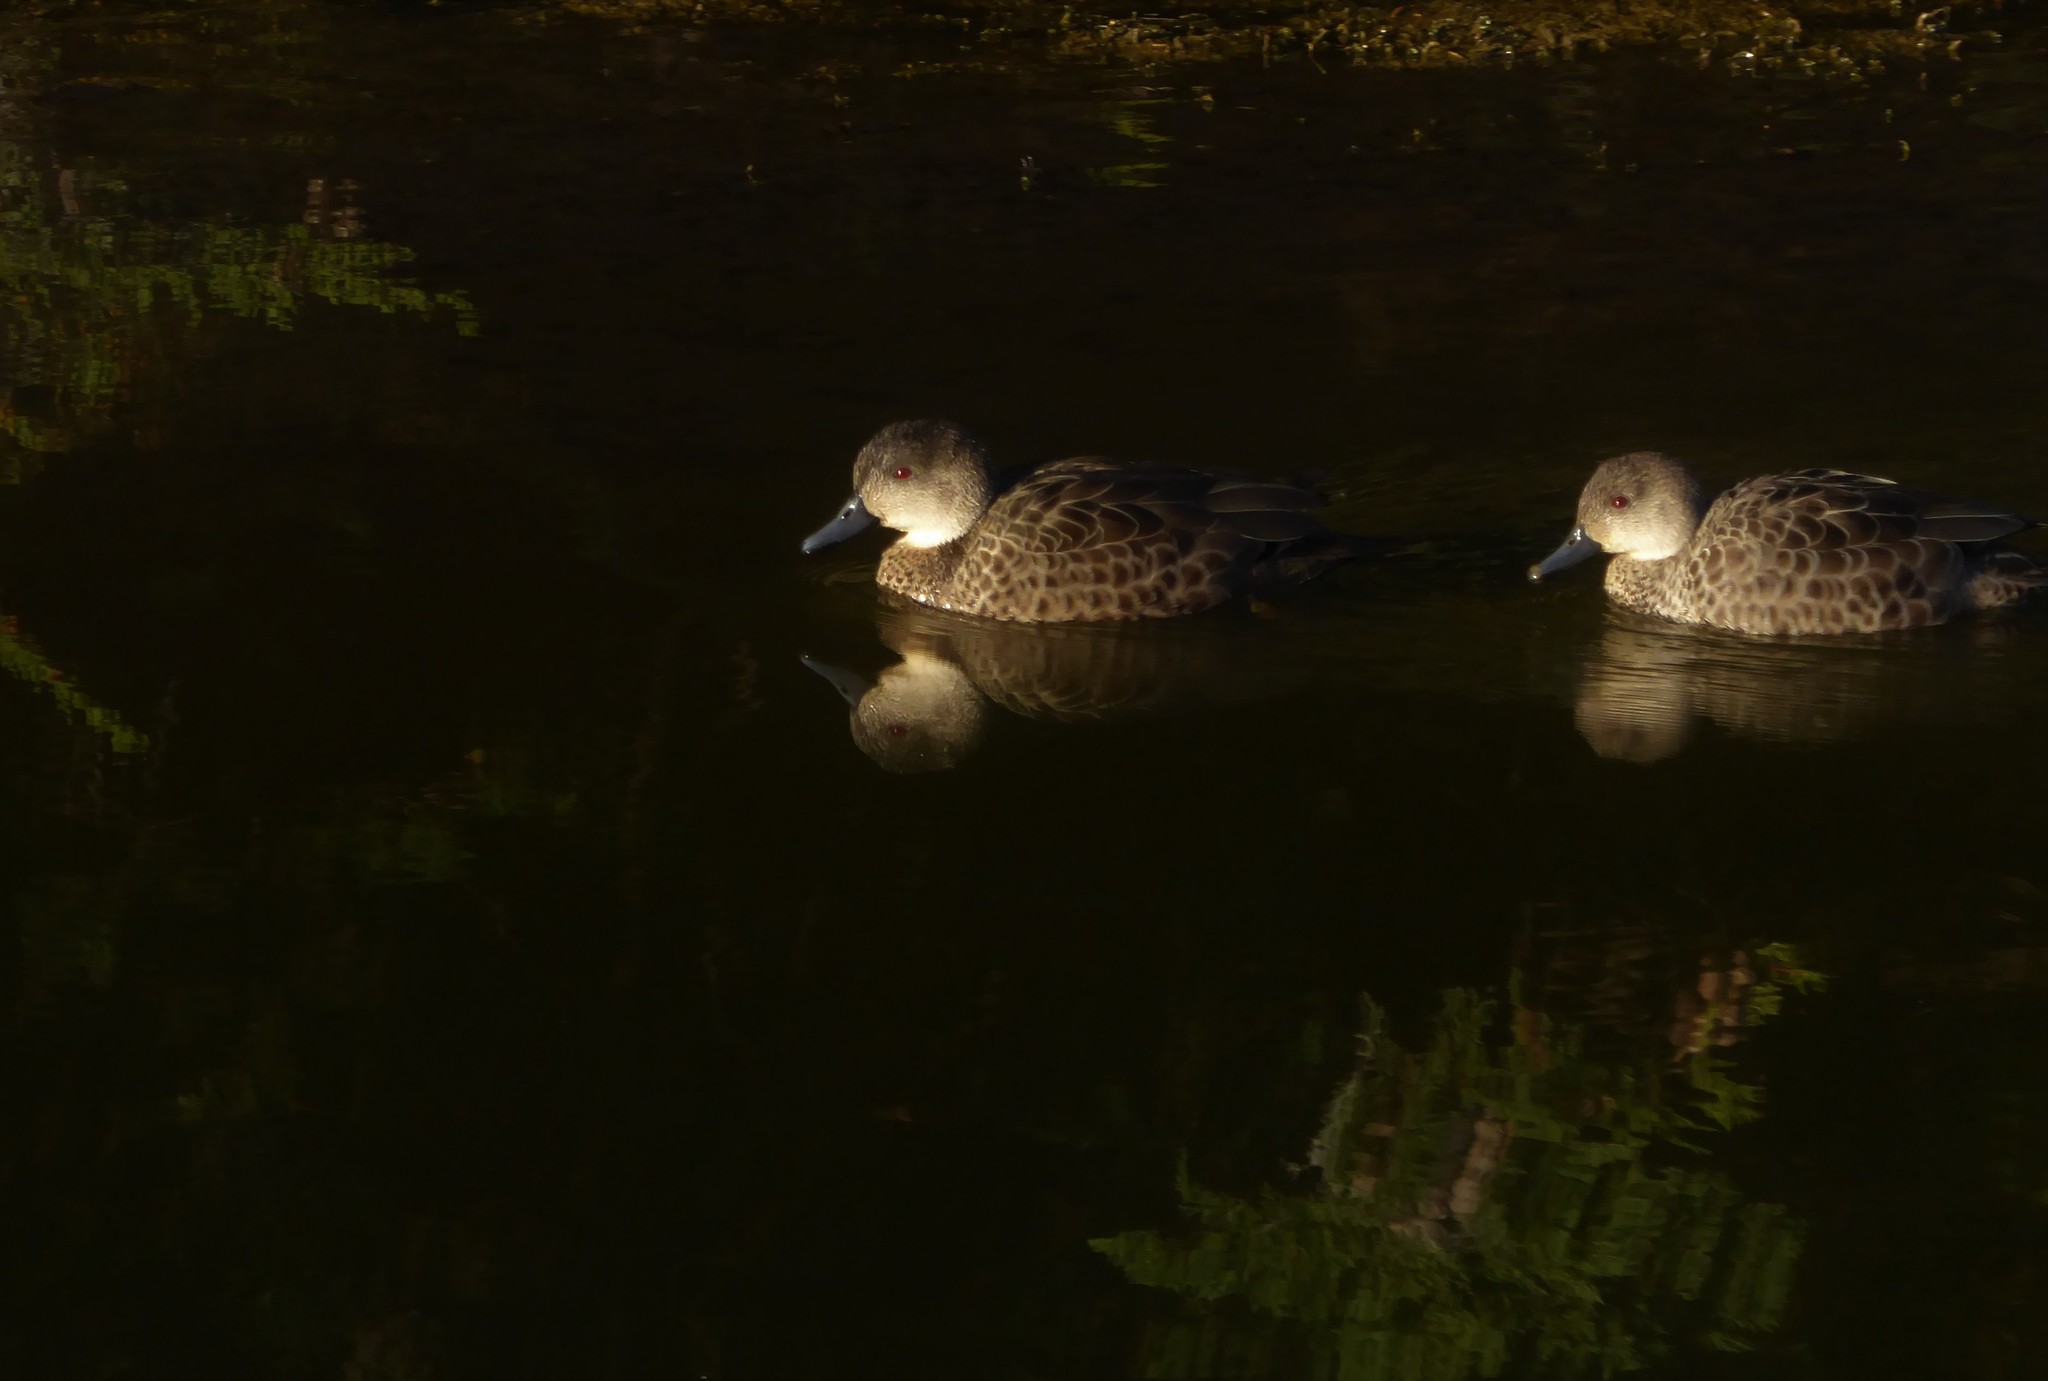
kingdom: Animalia
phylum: Chordata
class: Aves
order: Anseriformes
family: Anatidae
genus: Anas
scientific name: Anas gracilis
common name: Grey teal
